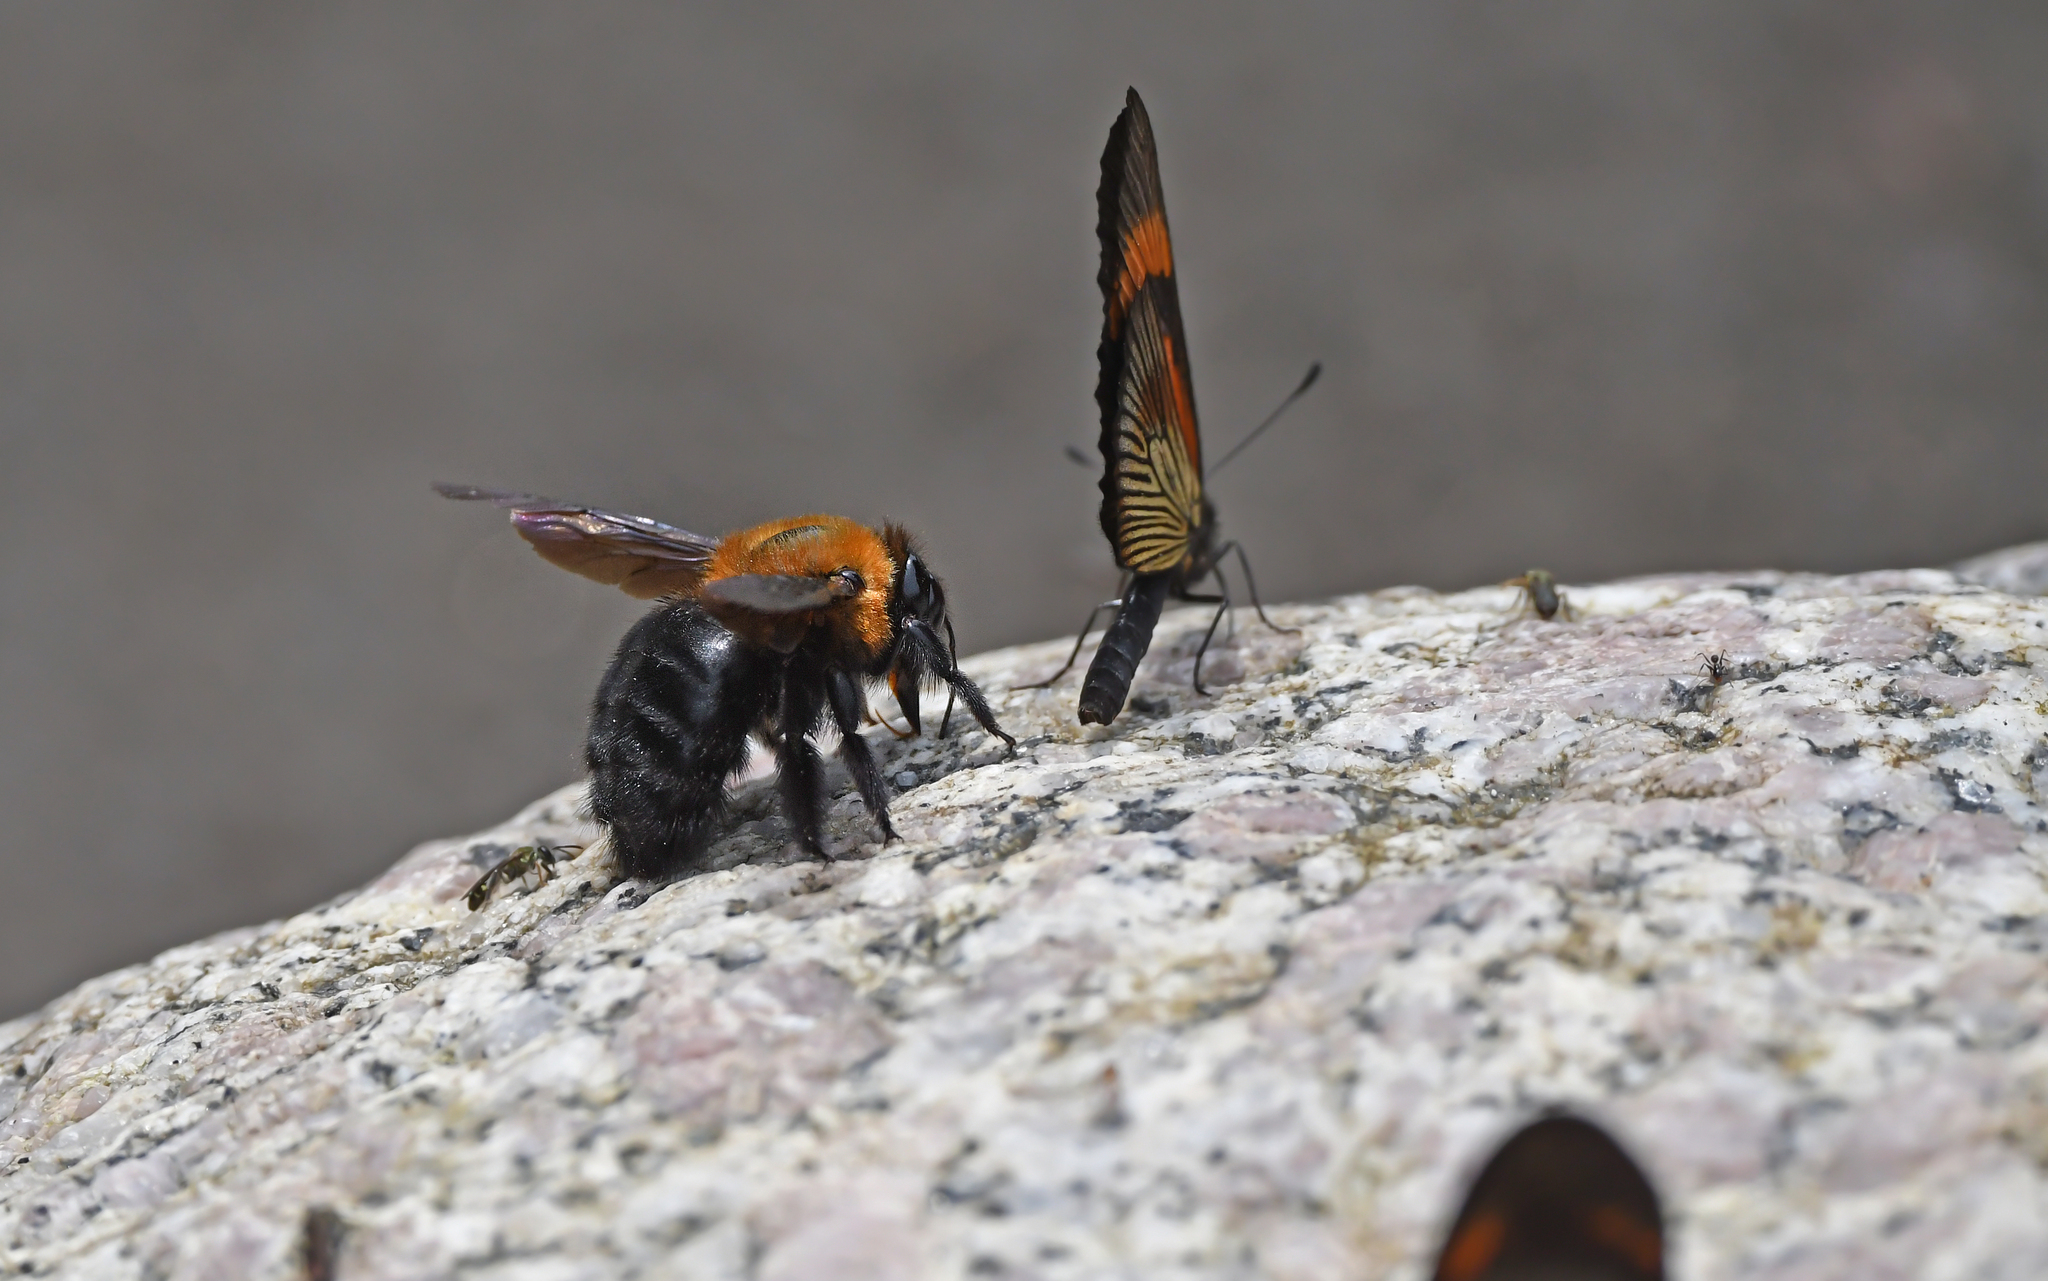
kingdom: Animalia
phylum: Arthropoda
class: Insecta
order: Hymenoptera
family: Apidae
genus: Xylocopa
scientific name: Xylocopa similis
